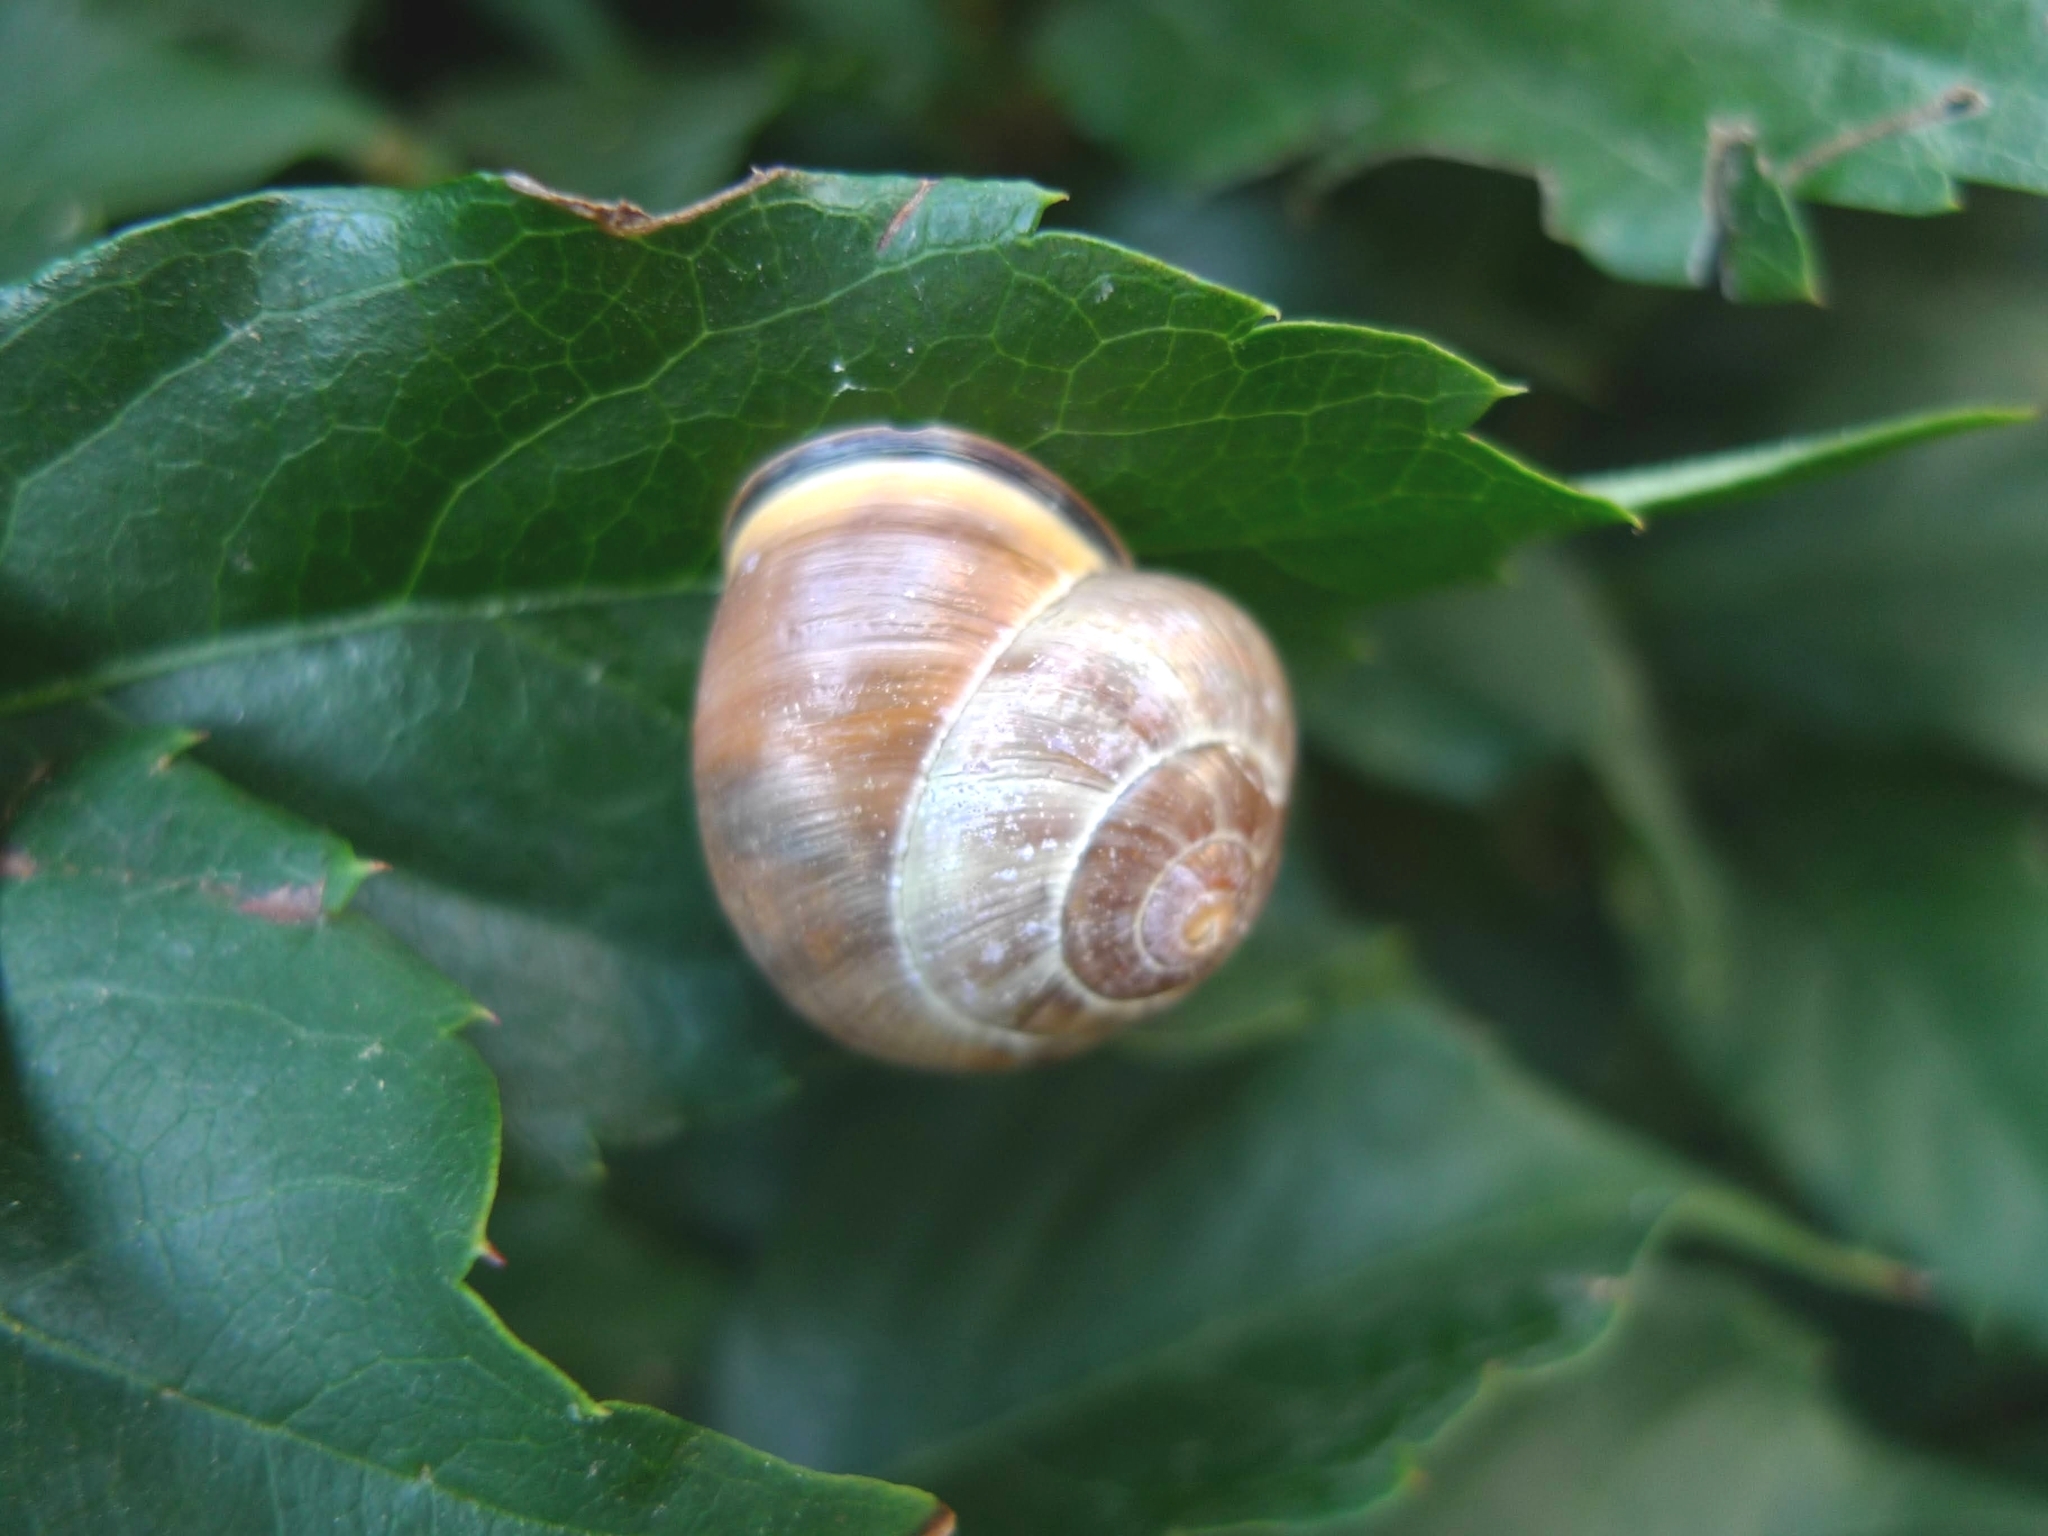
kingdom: Animalia
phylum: Mollusca
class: Gastropoda
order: Stylommatophora
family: Helicidae
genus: Cepaea
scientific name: Cepaea nemoralis
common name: Grovesnail
